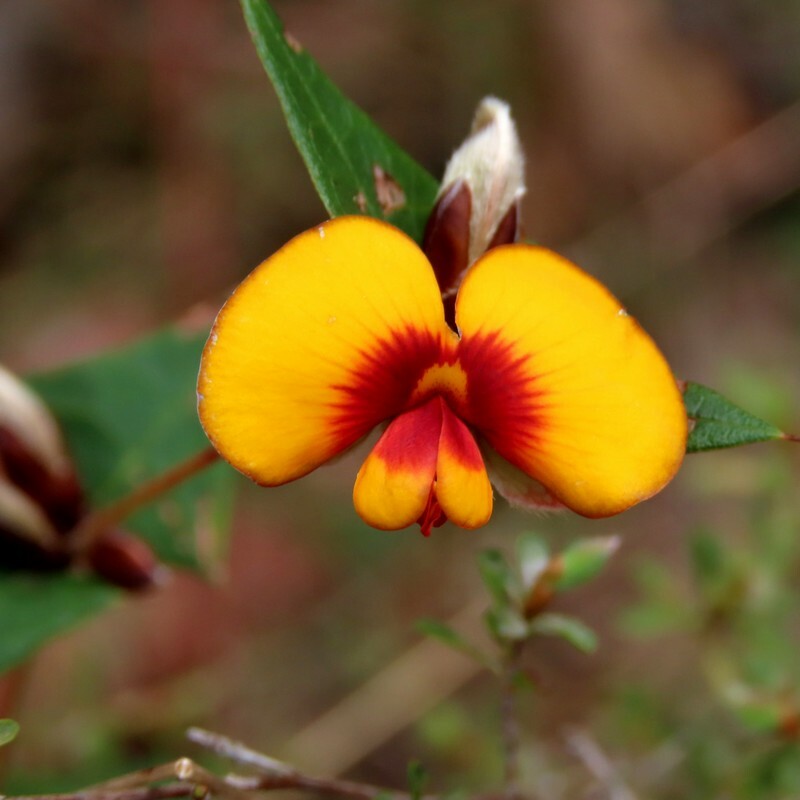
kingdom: Plantae
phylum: Tracheophyta
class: Magnoliopsida
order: Fabales
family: Fabaceae
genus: Platylobium
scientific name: Platylobium obtusangulum
